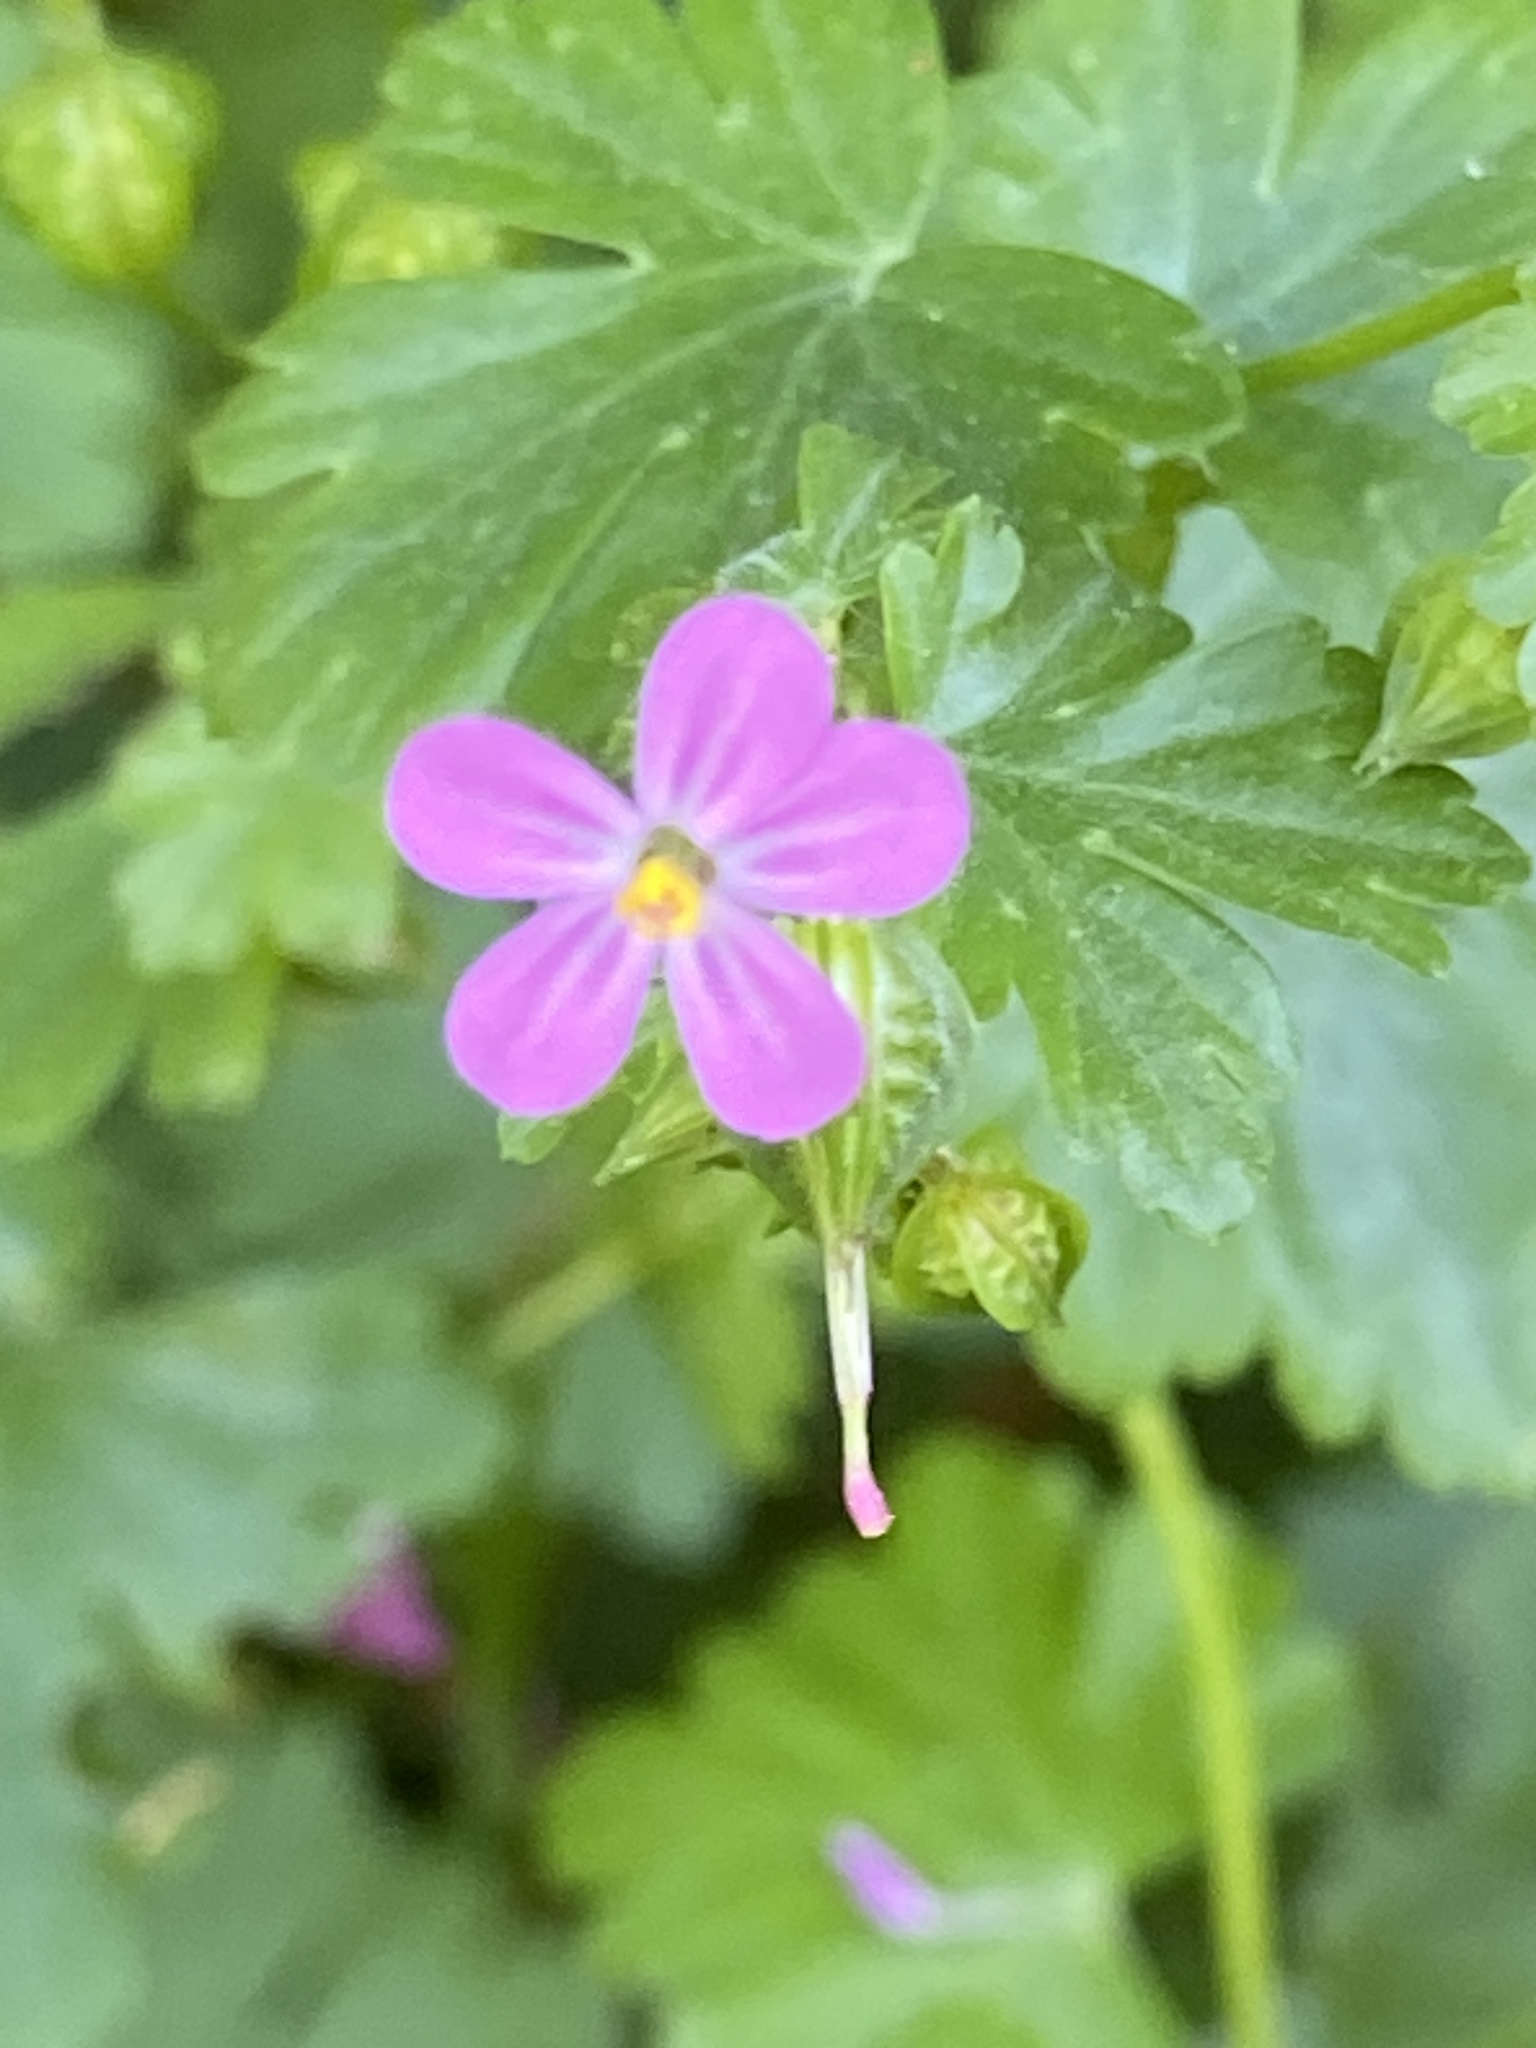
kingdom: Plantae
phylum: Tracheophyta
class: Magnoliopsida
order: Geraniales
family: Geraniaceae
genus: Geranium
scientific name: Geranium lucidum
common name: Shining crane's-bill
